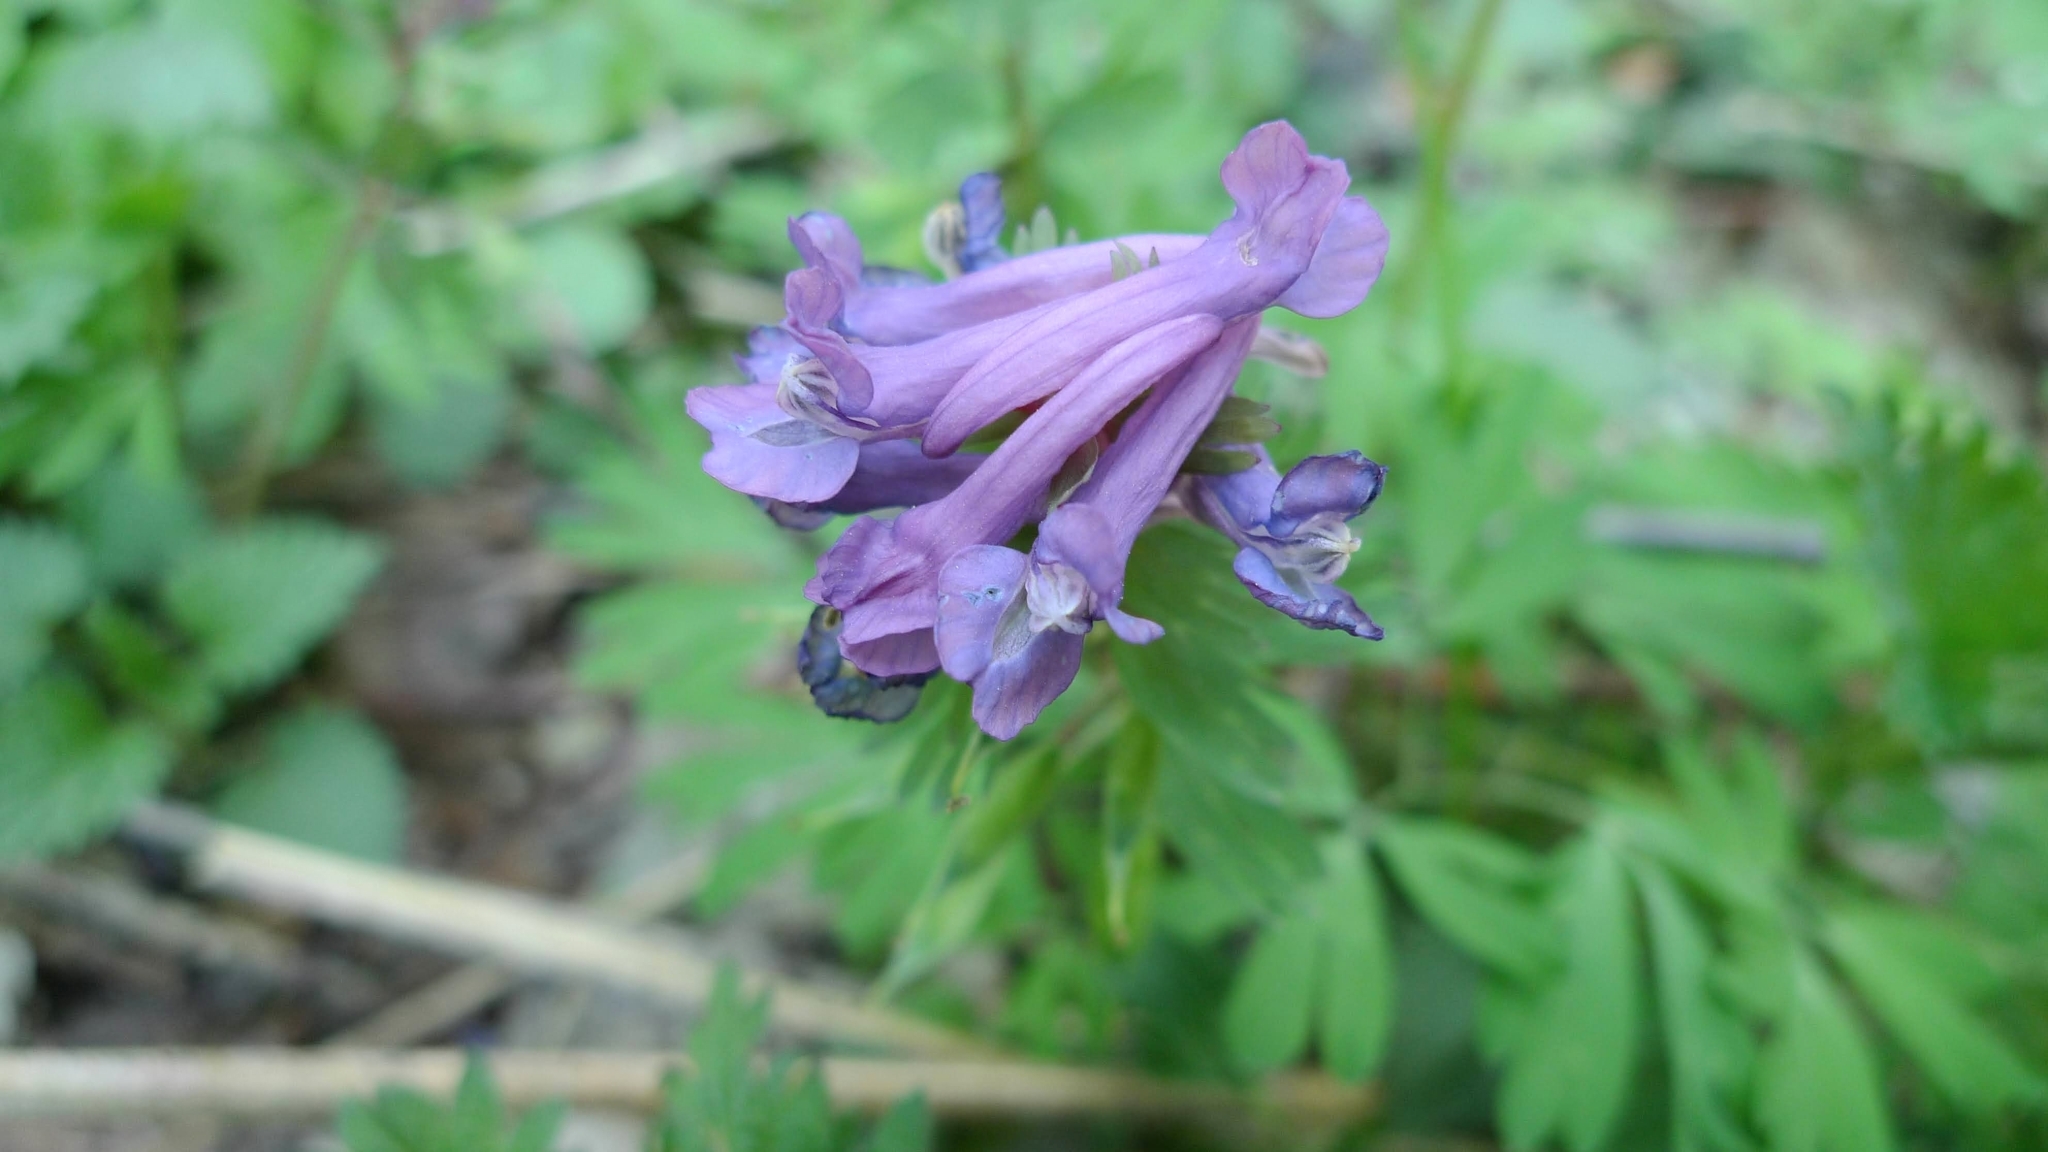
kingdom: Plantae
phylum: Tracheophyta
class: Magnoliopsida
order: Ranunculales
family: Papaveraceae
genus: Corydalis
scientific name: Corydalis solida
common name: Bird-in-a-bush
